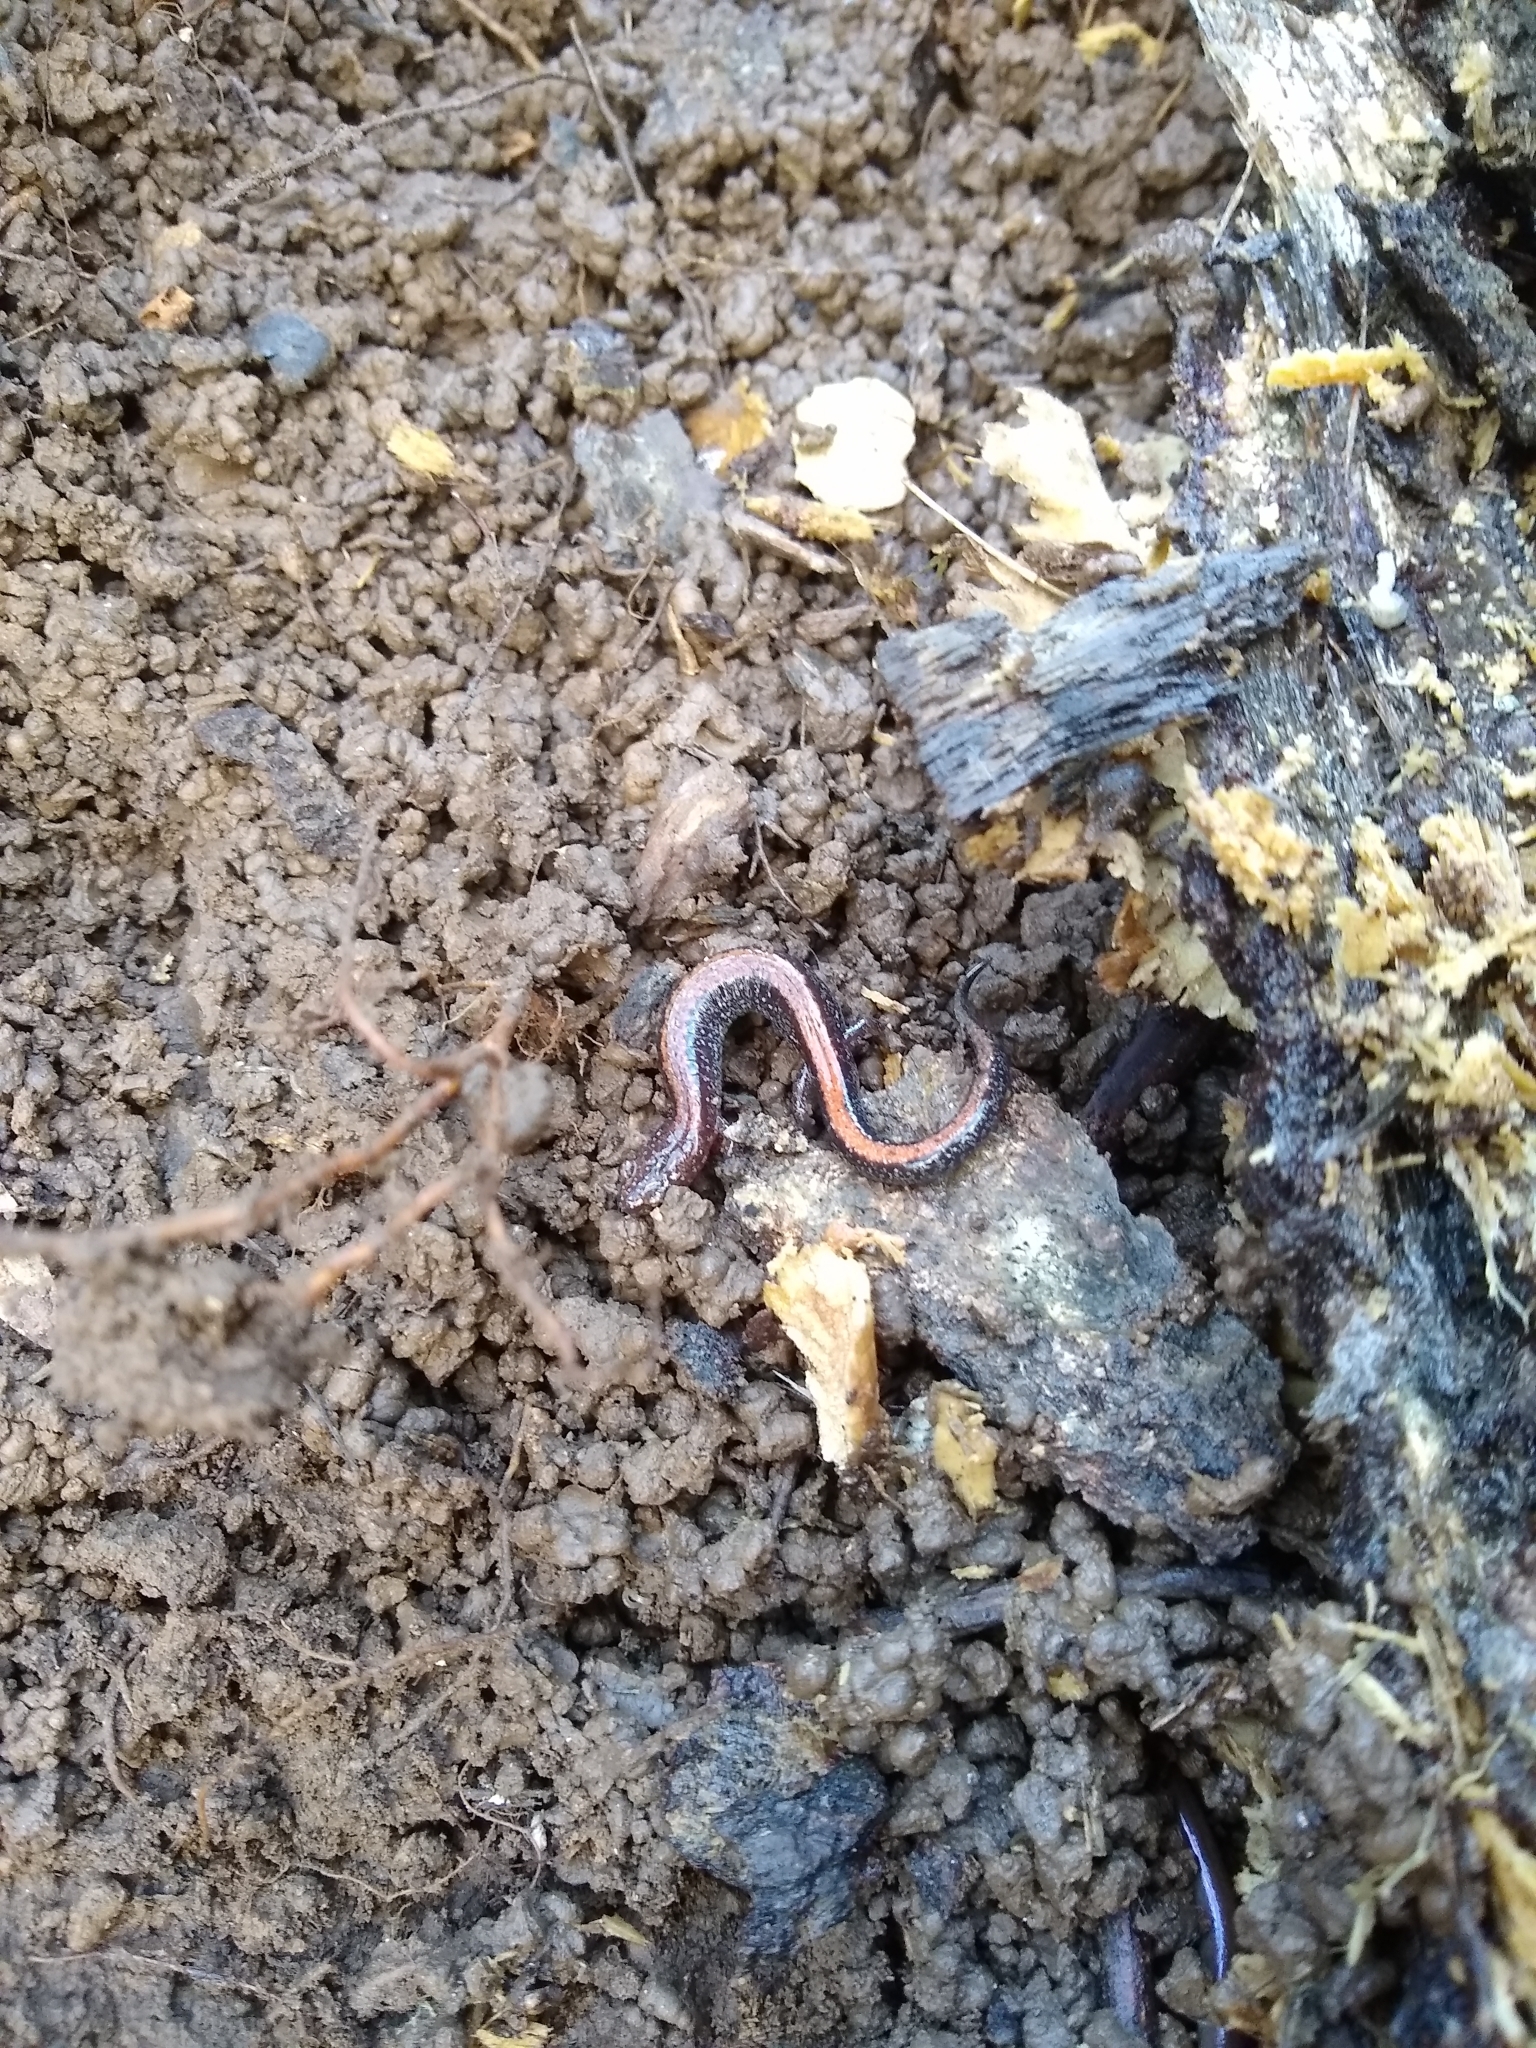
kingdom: Animalia
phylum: Chordata
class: Amphibia
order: Caudata
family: Plethodontidae
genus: Plethodon
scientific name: Plethodon cinereus
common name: Redback salamander
